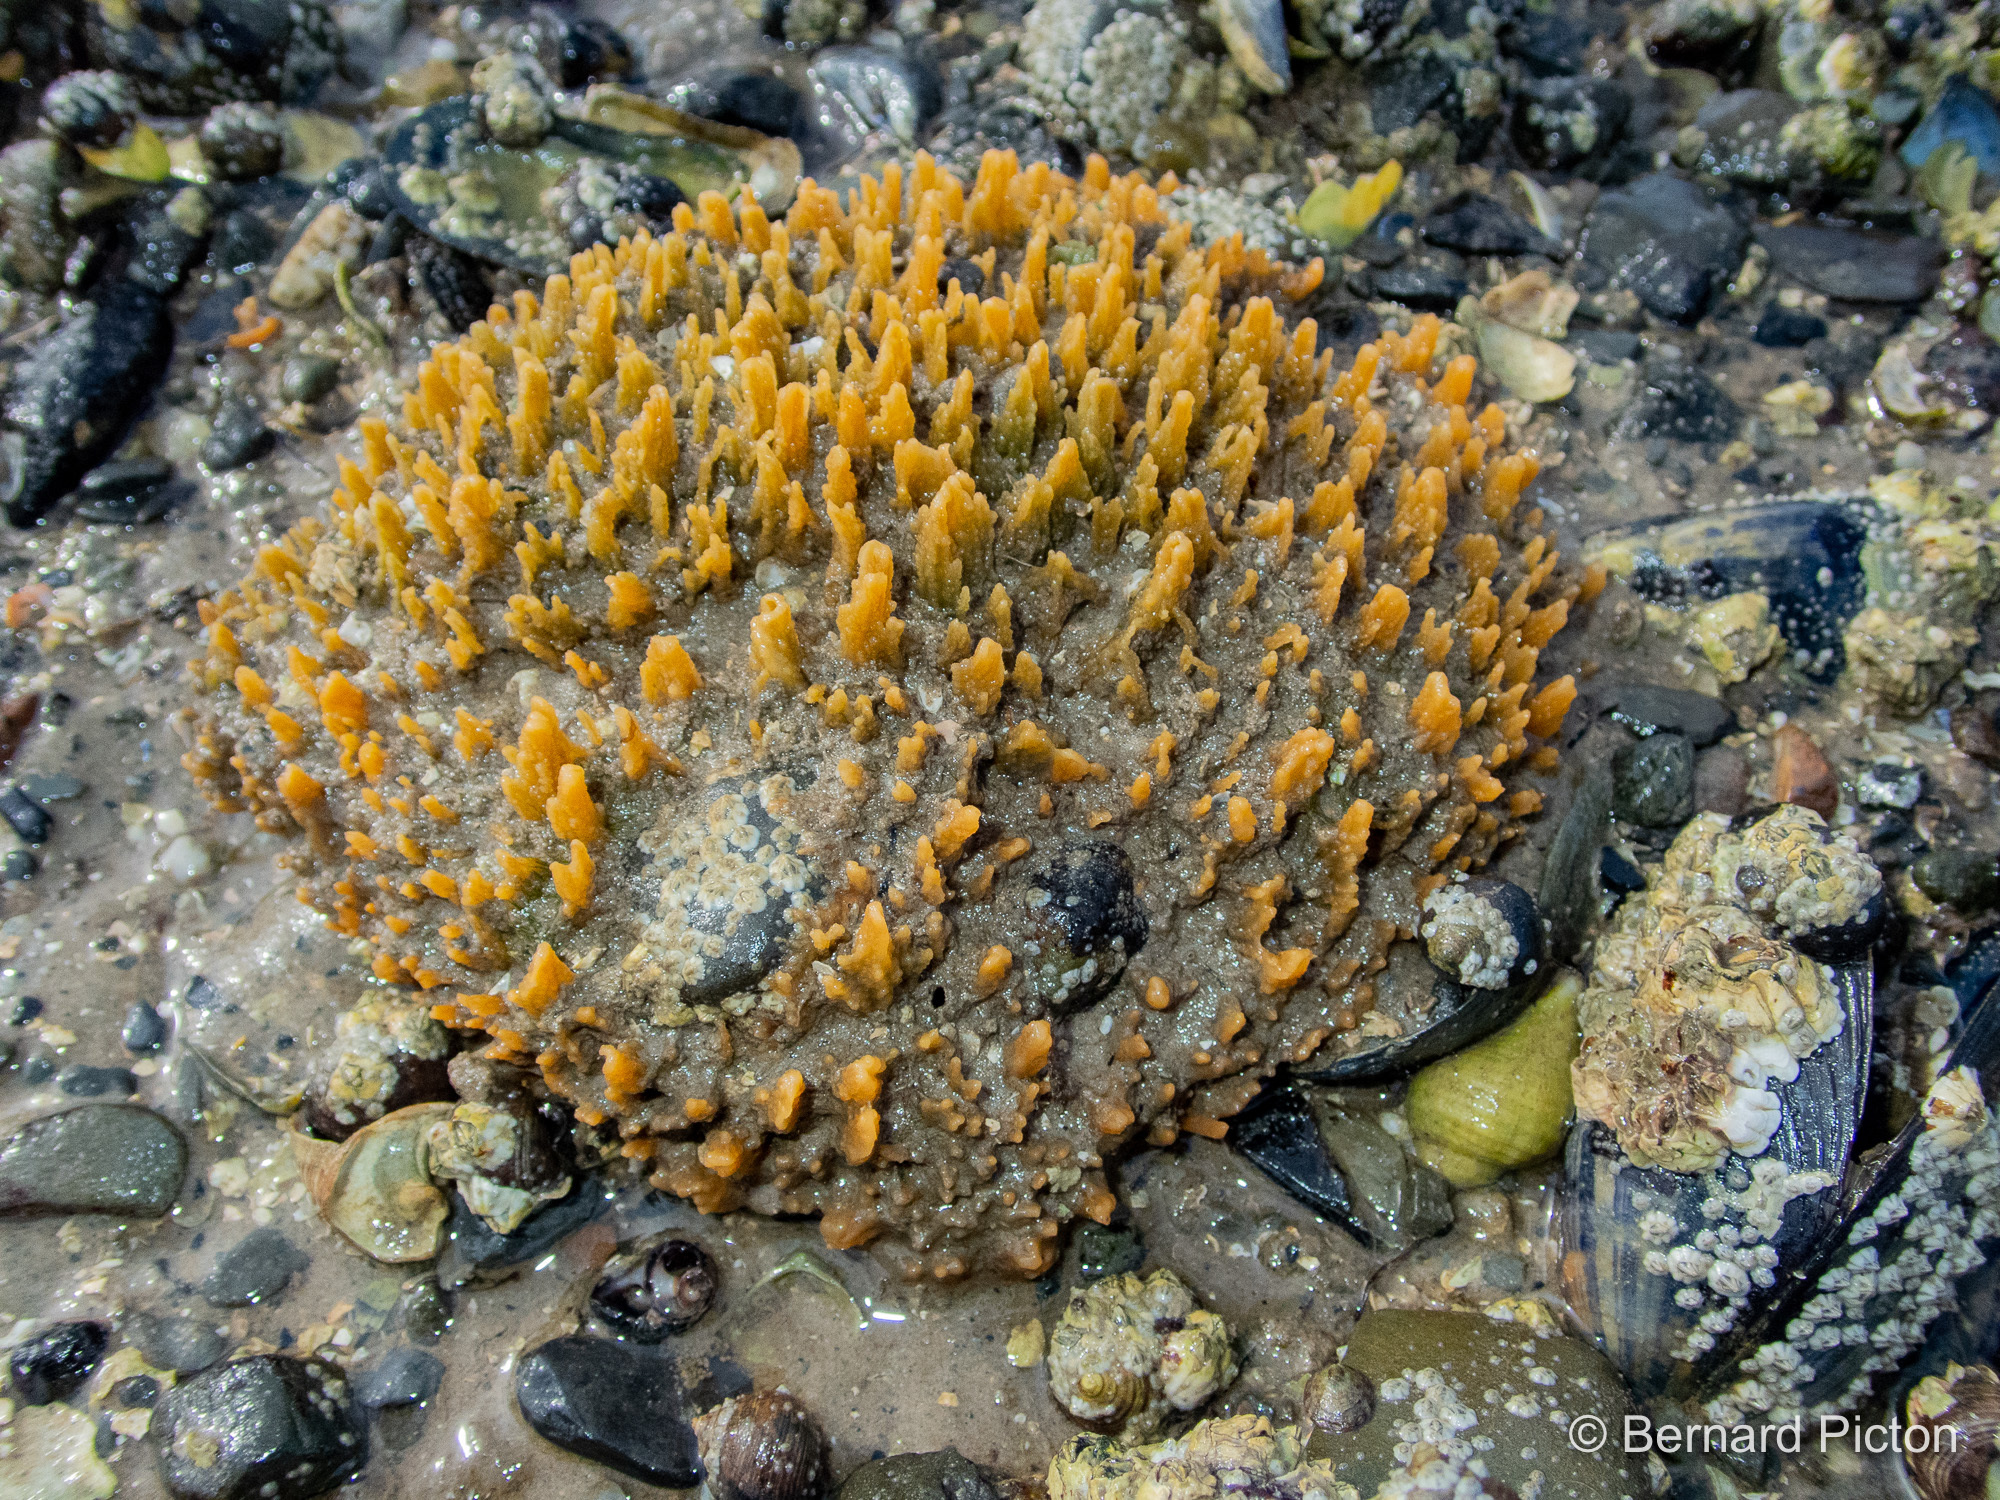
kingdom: Animalia
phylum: Porifera
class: Demospongiae
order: Suberitida
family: Halichondriidae
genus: Hymeniacidon
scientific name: Hymeniacidon perlevis
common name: Crumb-of-bread sponge
